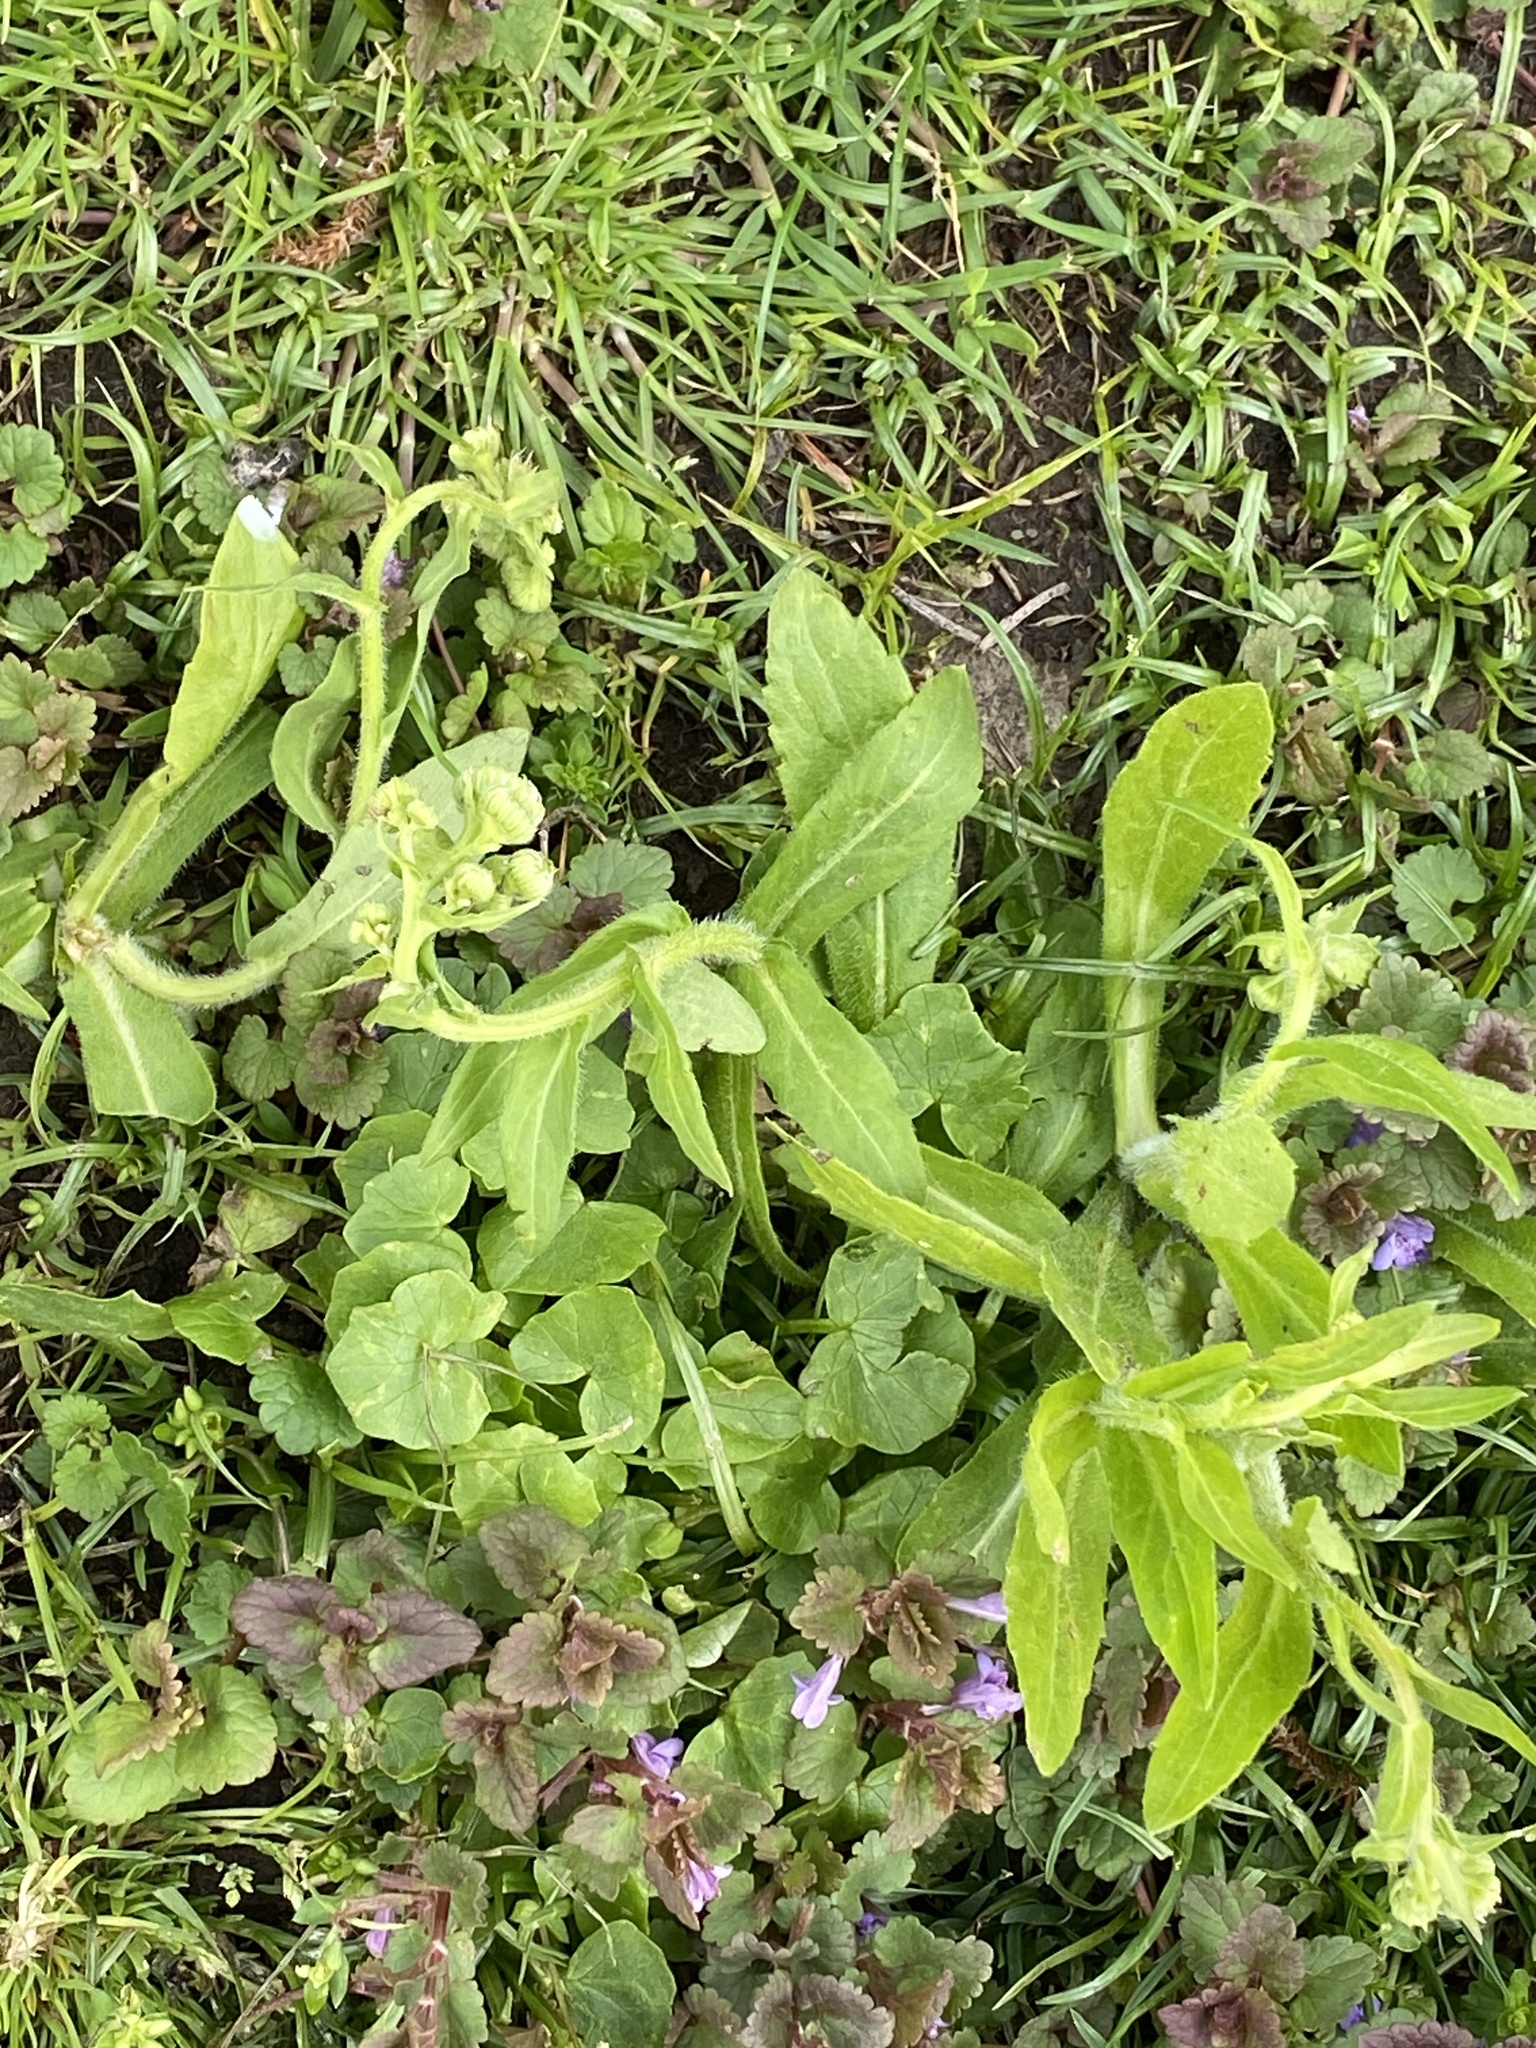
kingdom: Plantae
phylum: Tracheophyta
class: Magnoliopsida
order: Asterales
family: Asteraceae
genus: Erigeron
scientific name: Erigeron philadelphicus
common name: Robin's-plantain
